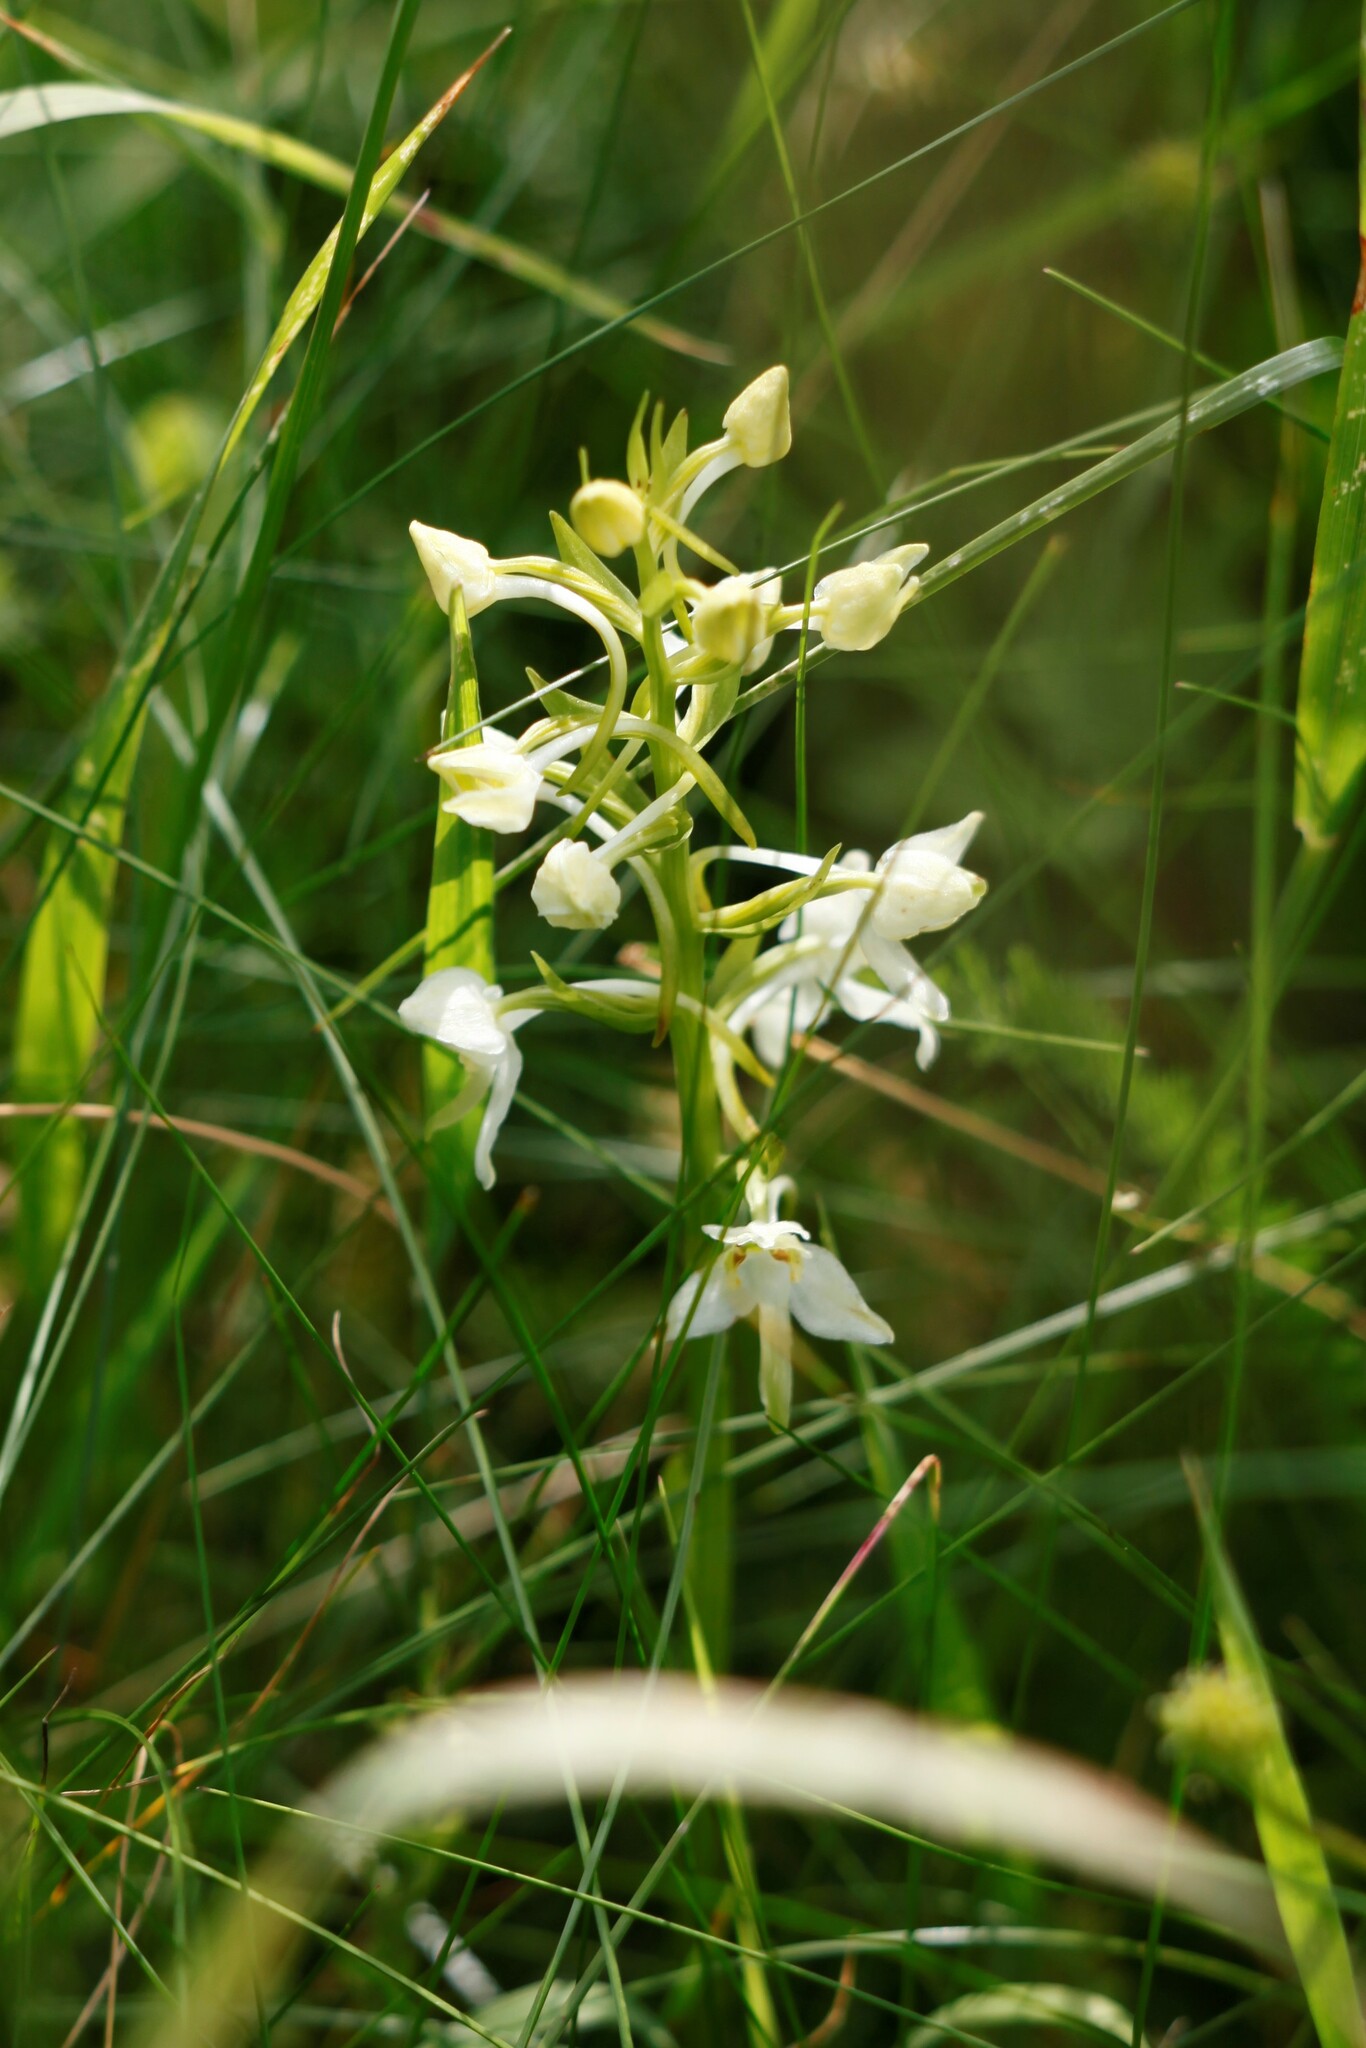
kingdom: Plantae
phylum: Tracheophyta
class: Liliopsida
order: Asparagales
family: Orchidaceae
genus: Platanthera
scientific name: Platanthera chlorantha
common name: Greater butterfly-orchid
